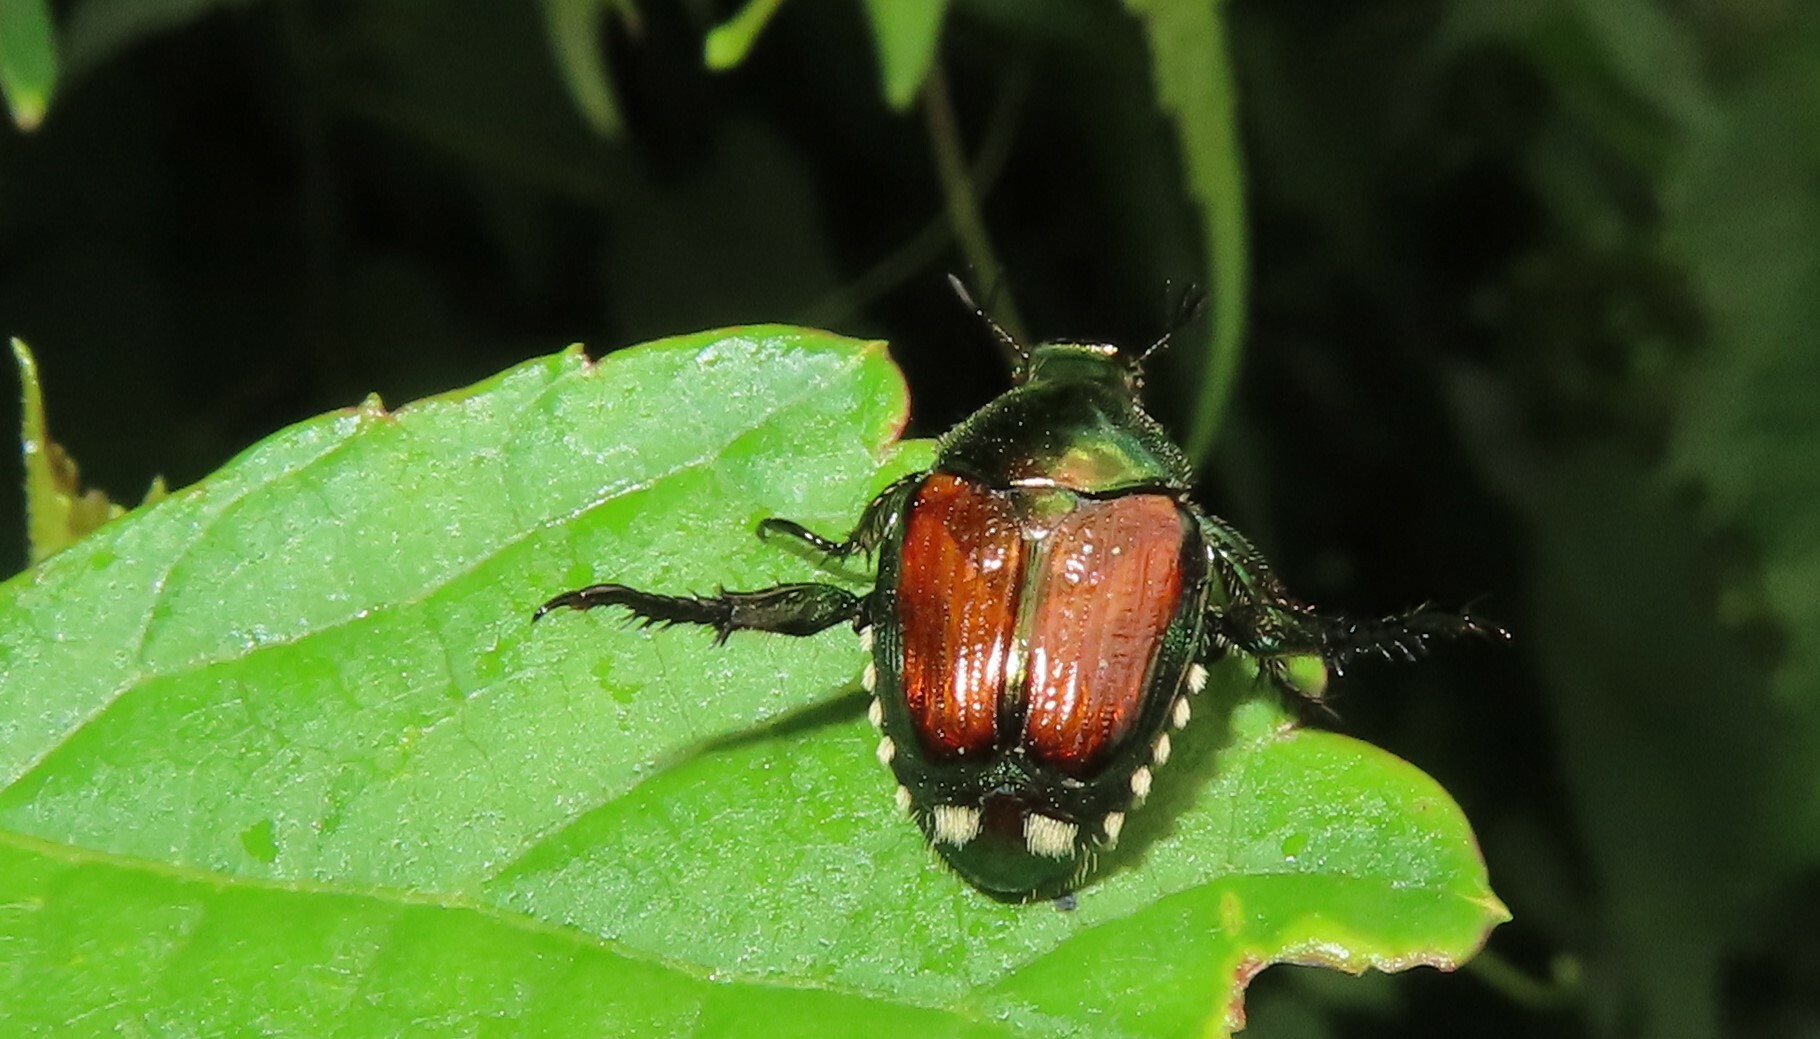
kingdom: Animalia
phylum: Arthropoda
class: Insecta
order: Coleoptera
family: Scarabaeidae
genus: Popillia
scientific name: Popillia japonica
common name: Japanese beetle
